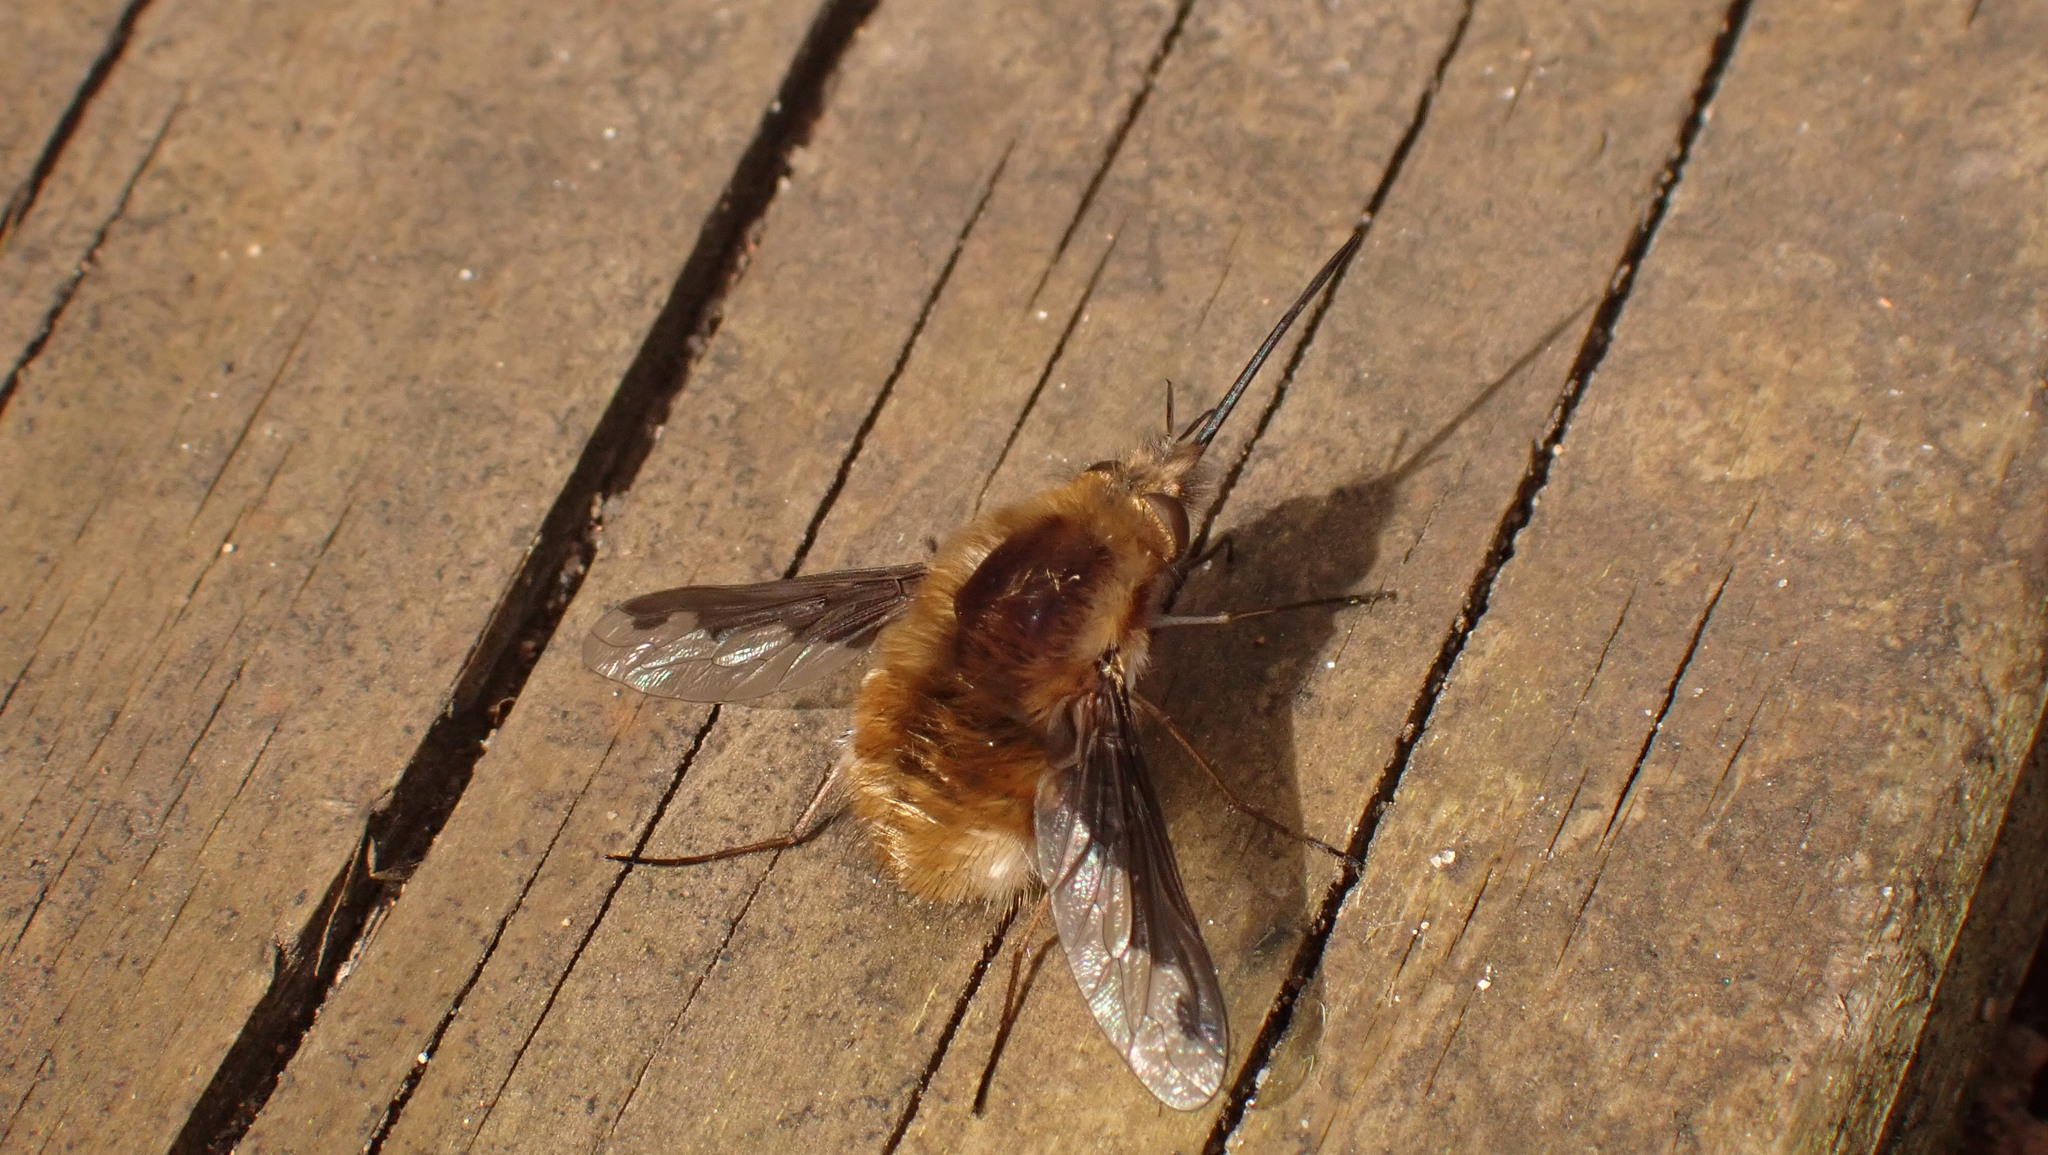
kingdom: Animalia
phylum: Arthropoda
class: Insecta
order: Diptera
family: Bombyliidae
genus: Bombylius
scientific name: Bombylius major
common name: Bee fly
